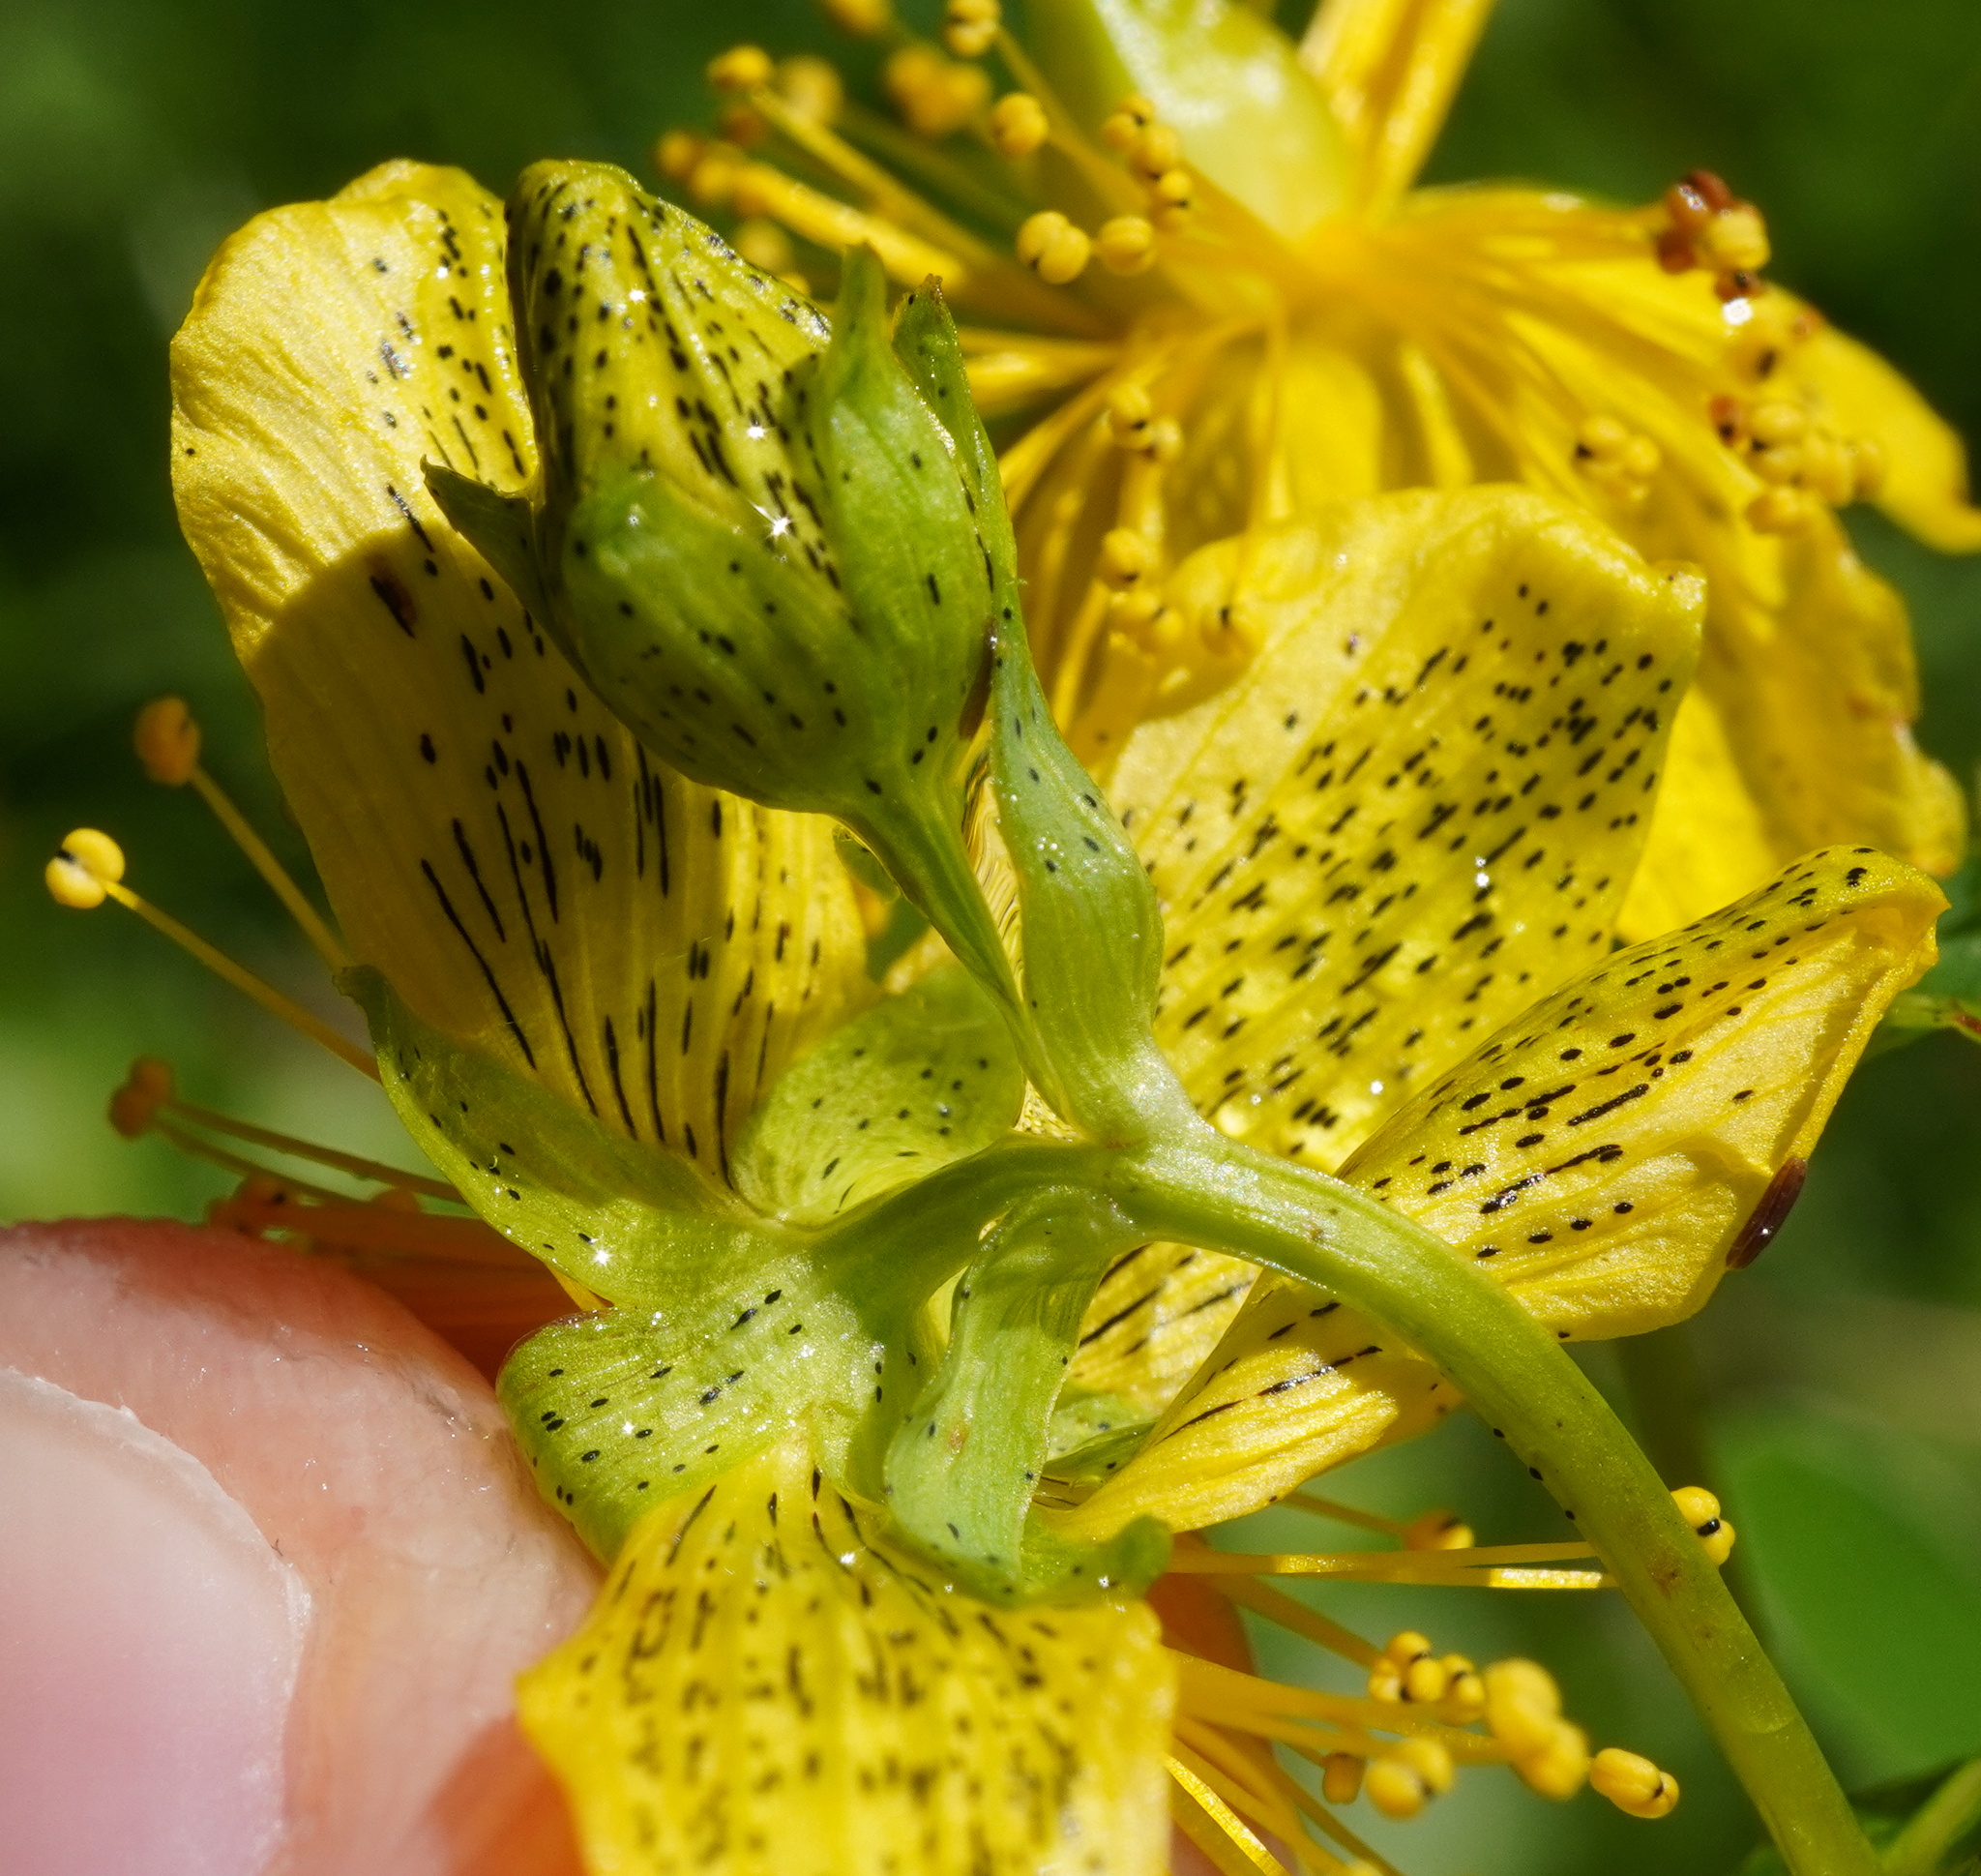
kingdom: Plantae
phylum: Tracheophyta
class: Magnoliopsida
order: Malpighiales
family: Hypericaceae
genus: Hypericum
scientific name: Hypericum maculatum
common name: Imperforate st. john's-wort
